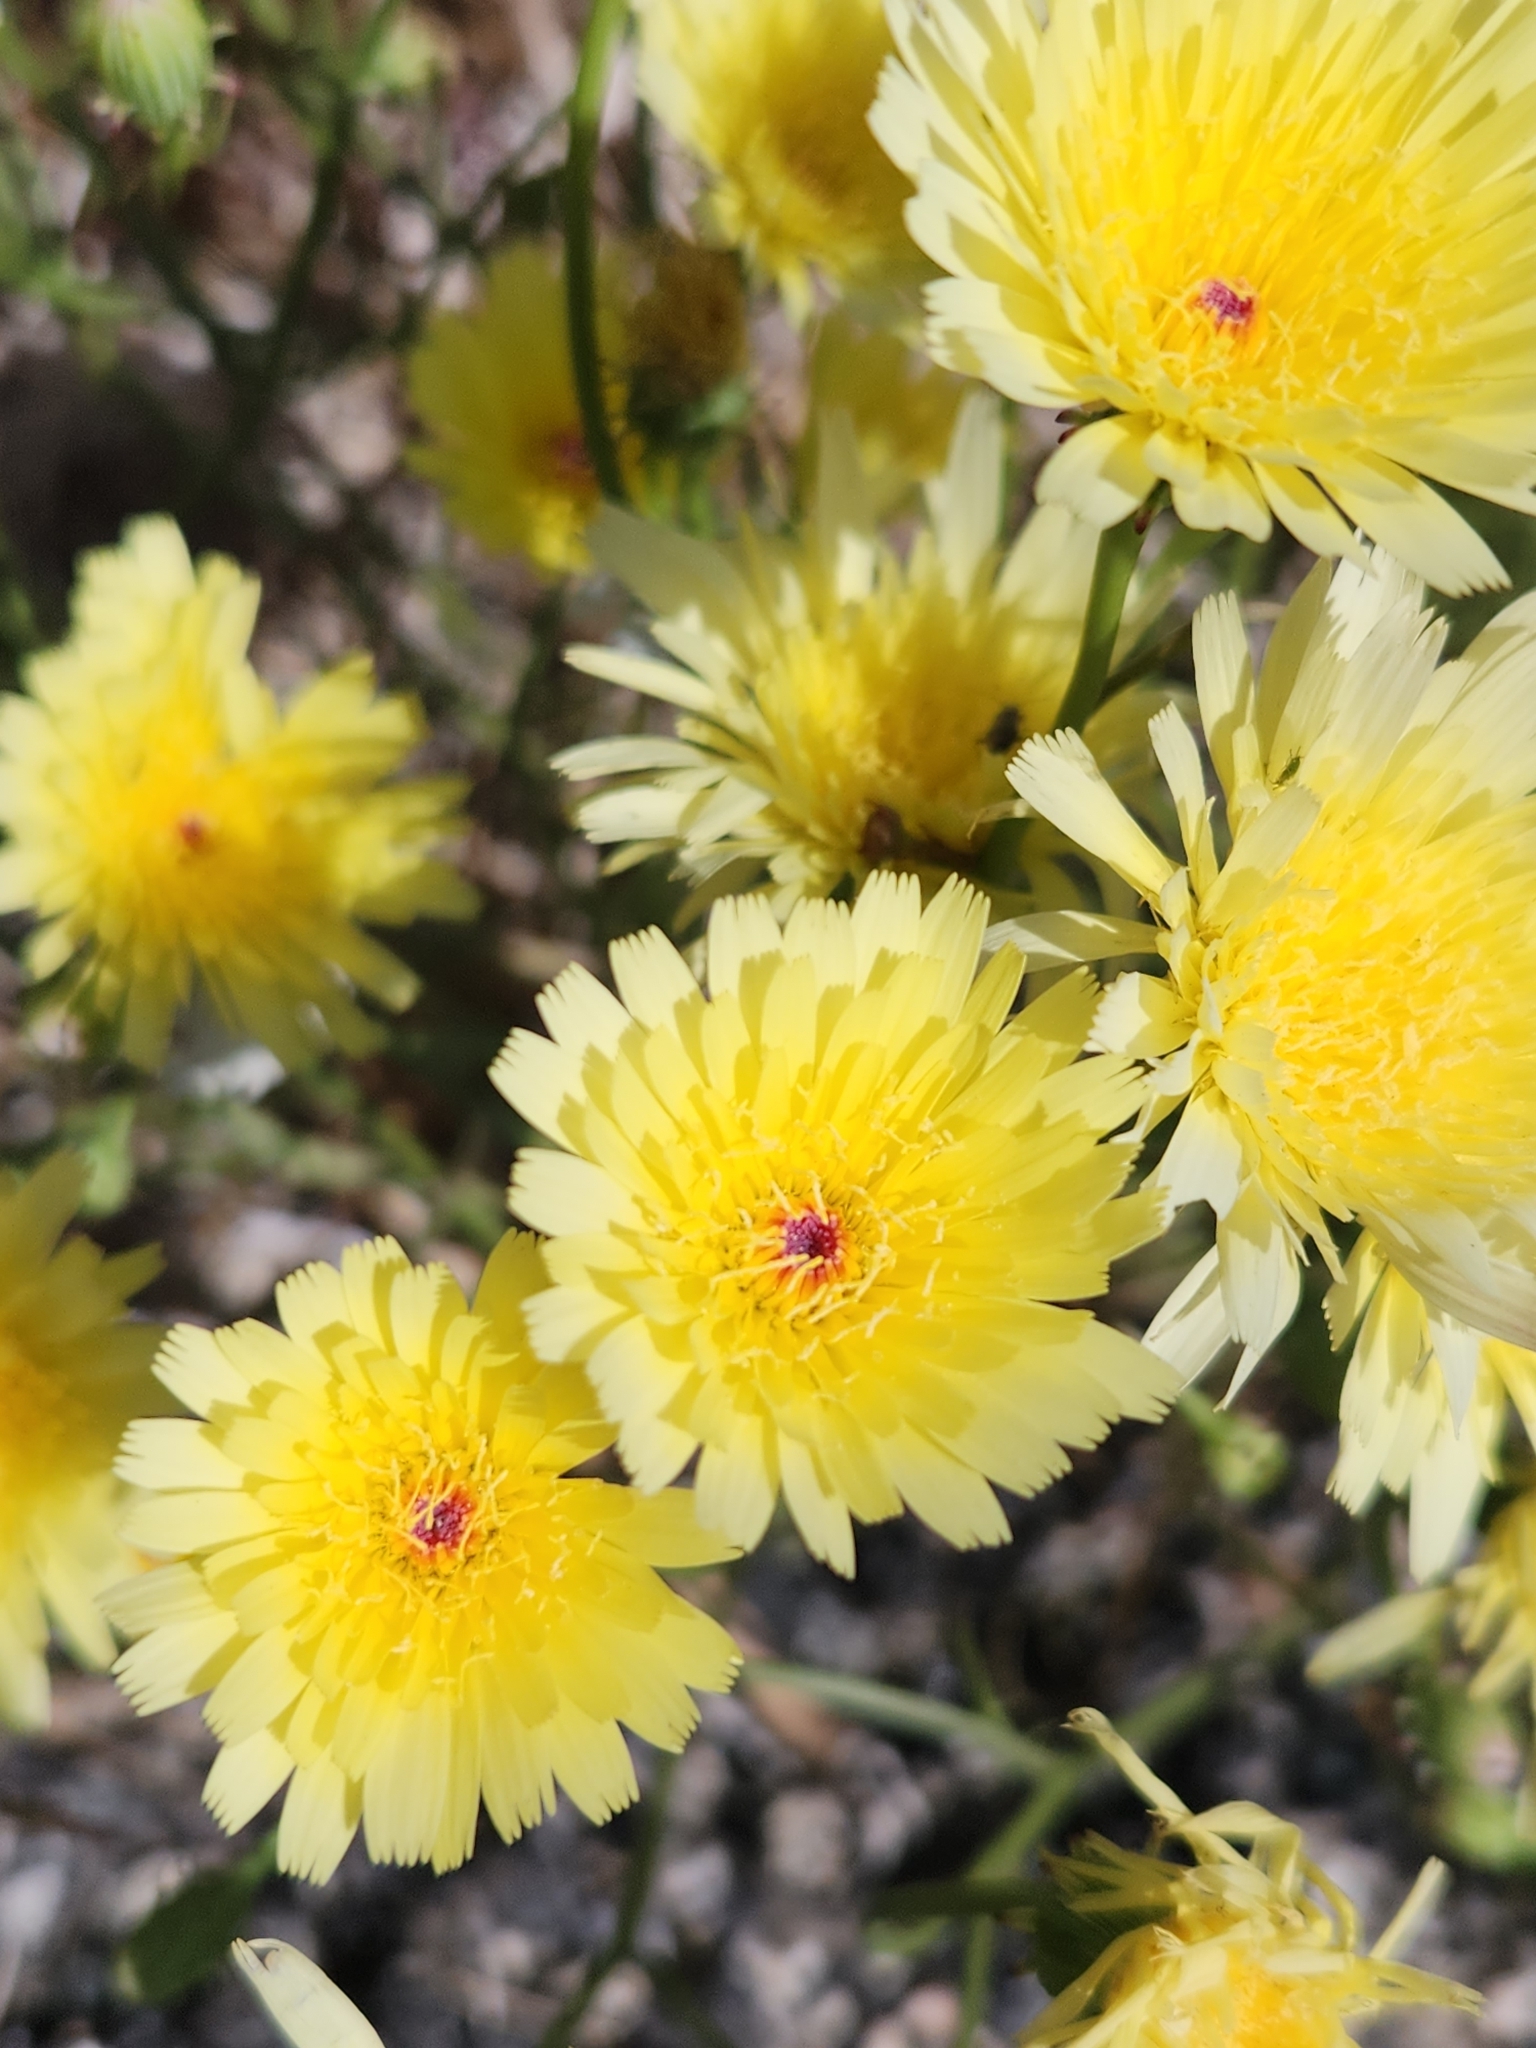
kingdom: Plantae
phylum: Tracheophyta
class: Magnoliopsida
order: Asterales
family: Asteraceae
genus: Malacothrix
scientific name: Malacothrix glabrata
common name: Smooth desert-dandelion
